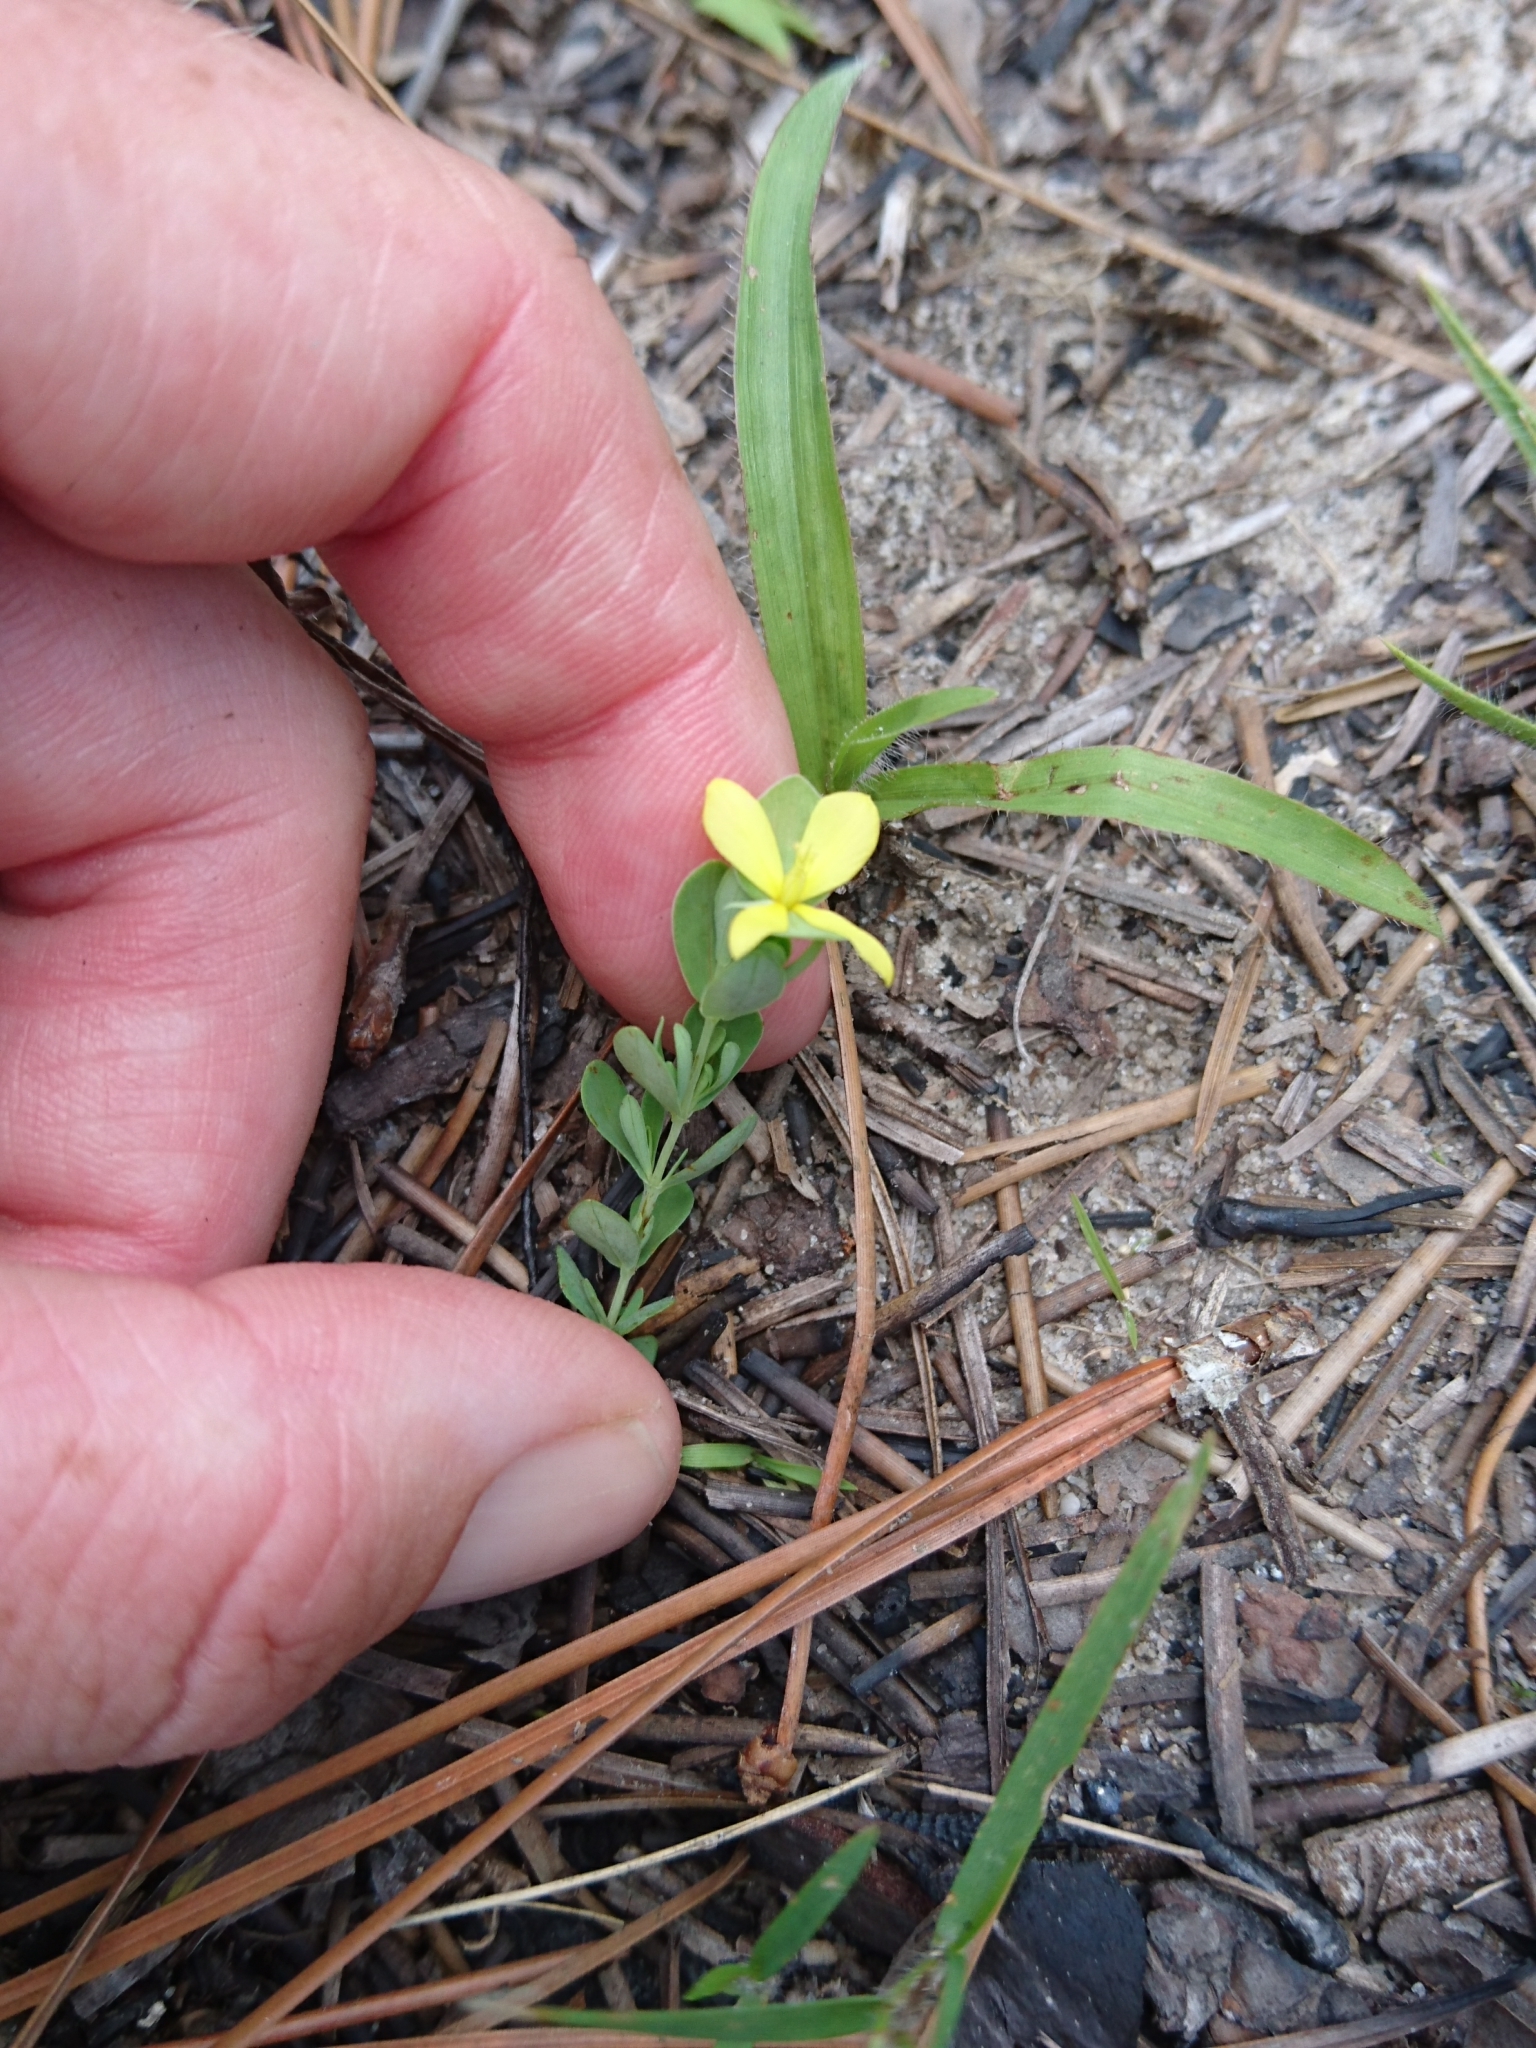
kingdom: Plantae
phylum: Tracheophyta
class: Magnoliopsida
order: Malpighiales
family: Hypericaceae
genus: Hypericum
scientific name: Hypericum hypericoides
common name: St. andrew's cross
